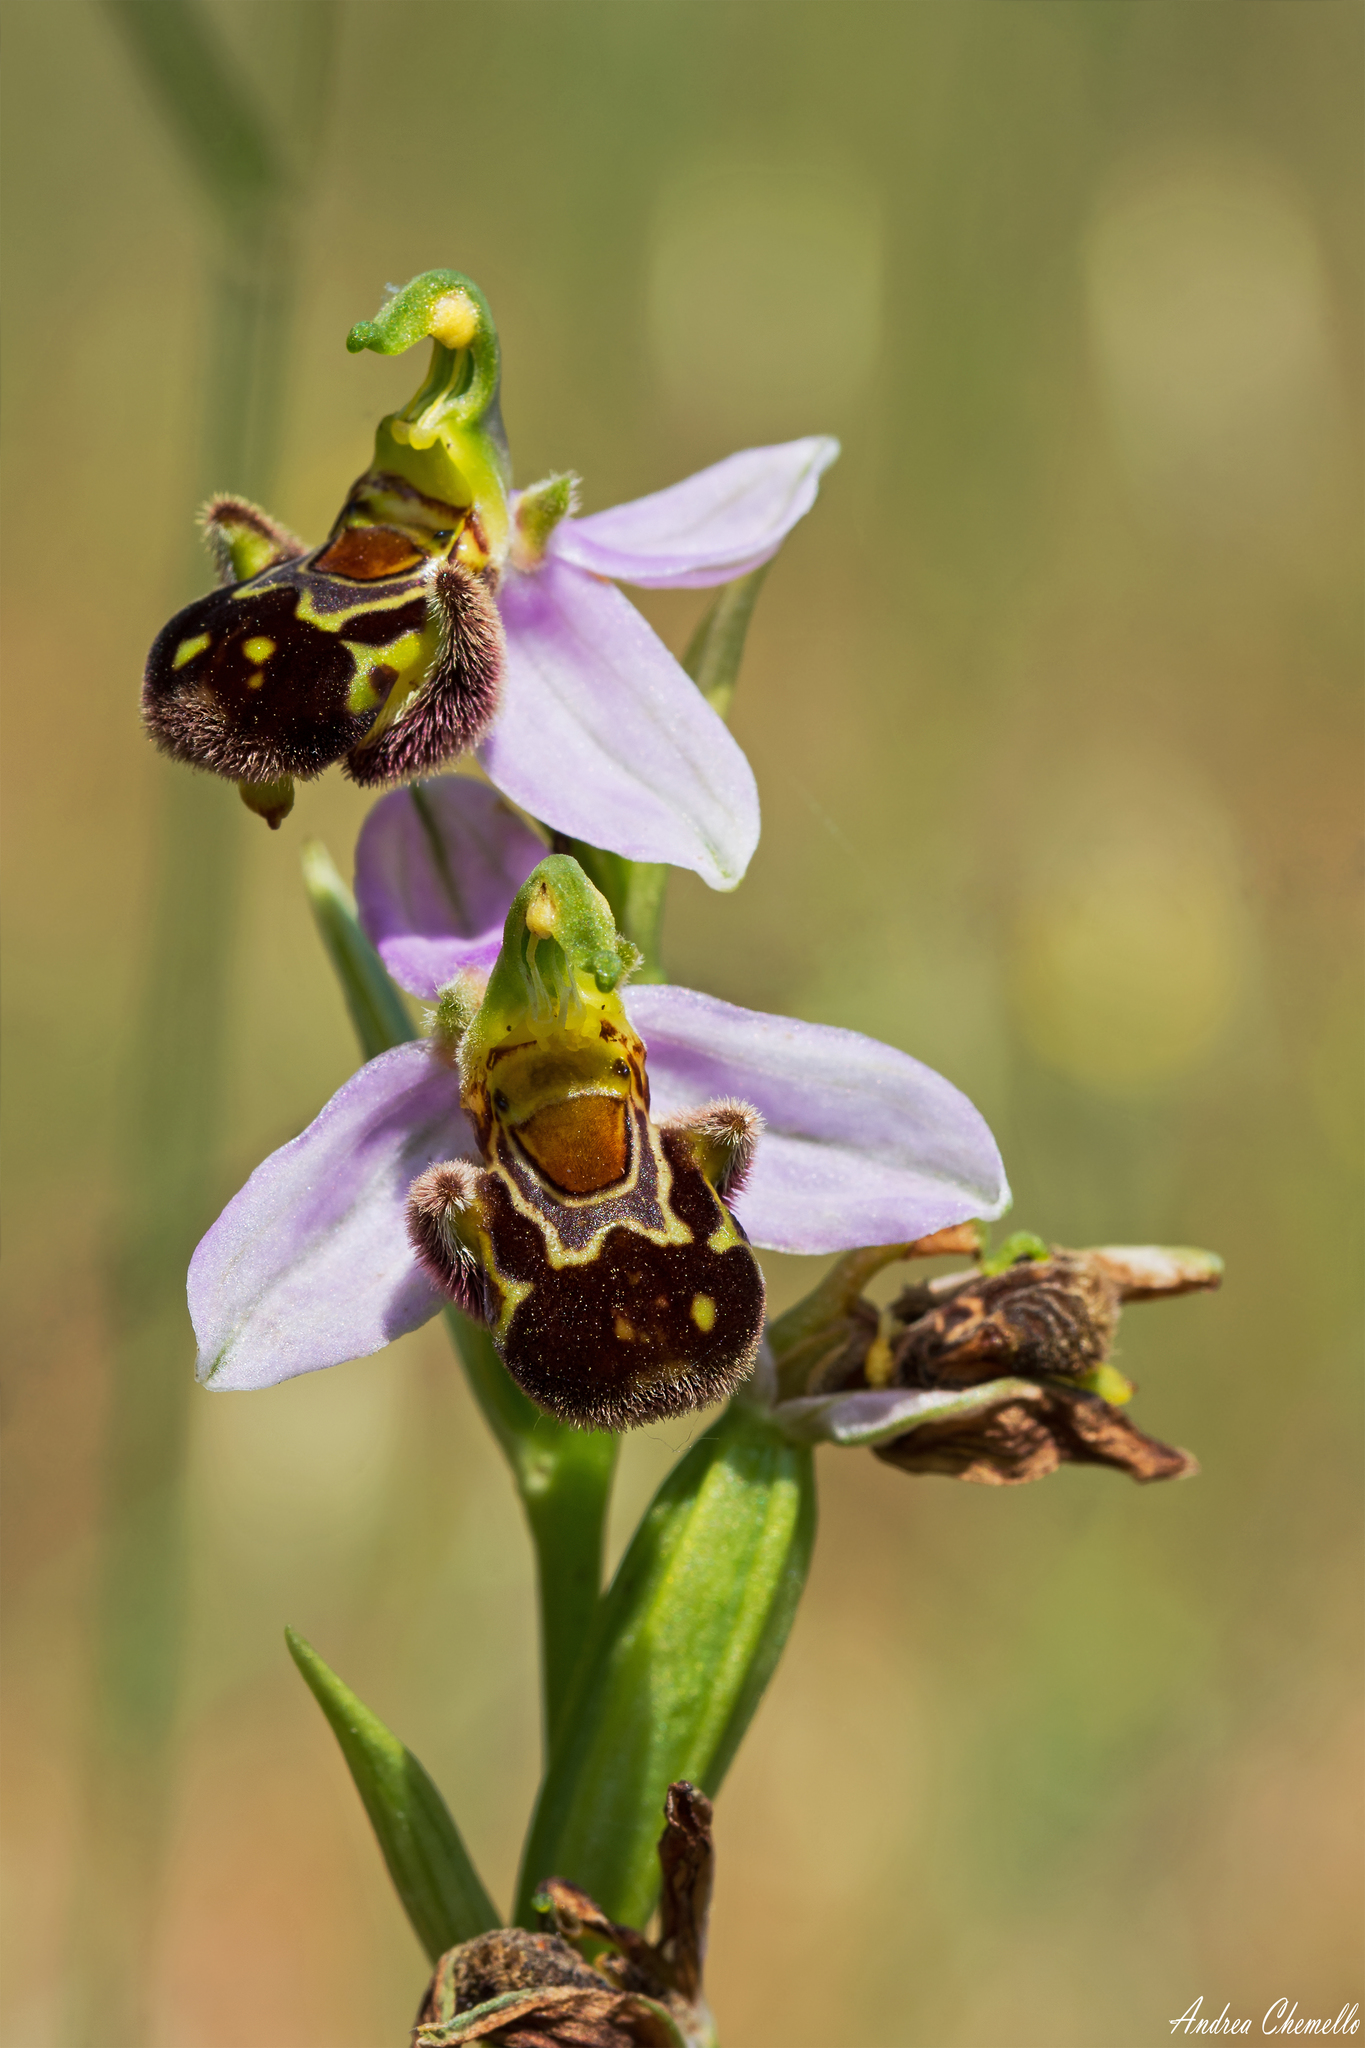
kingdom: Plantae
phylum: Tracheophyta
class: Liliopsida
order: Asparagales
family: Orchidaceae
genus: Ophrys
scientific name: Ophrys apifera
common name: Bee orchid
